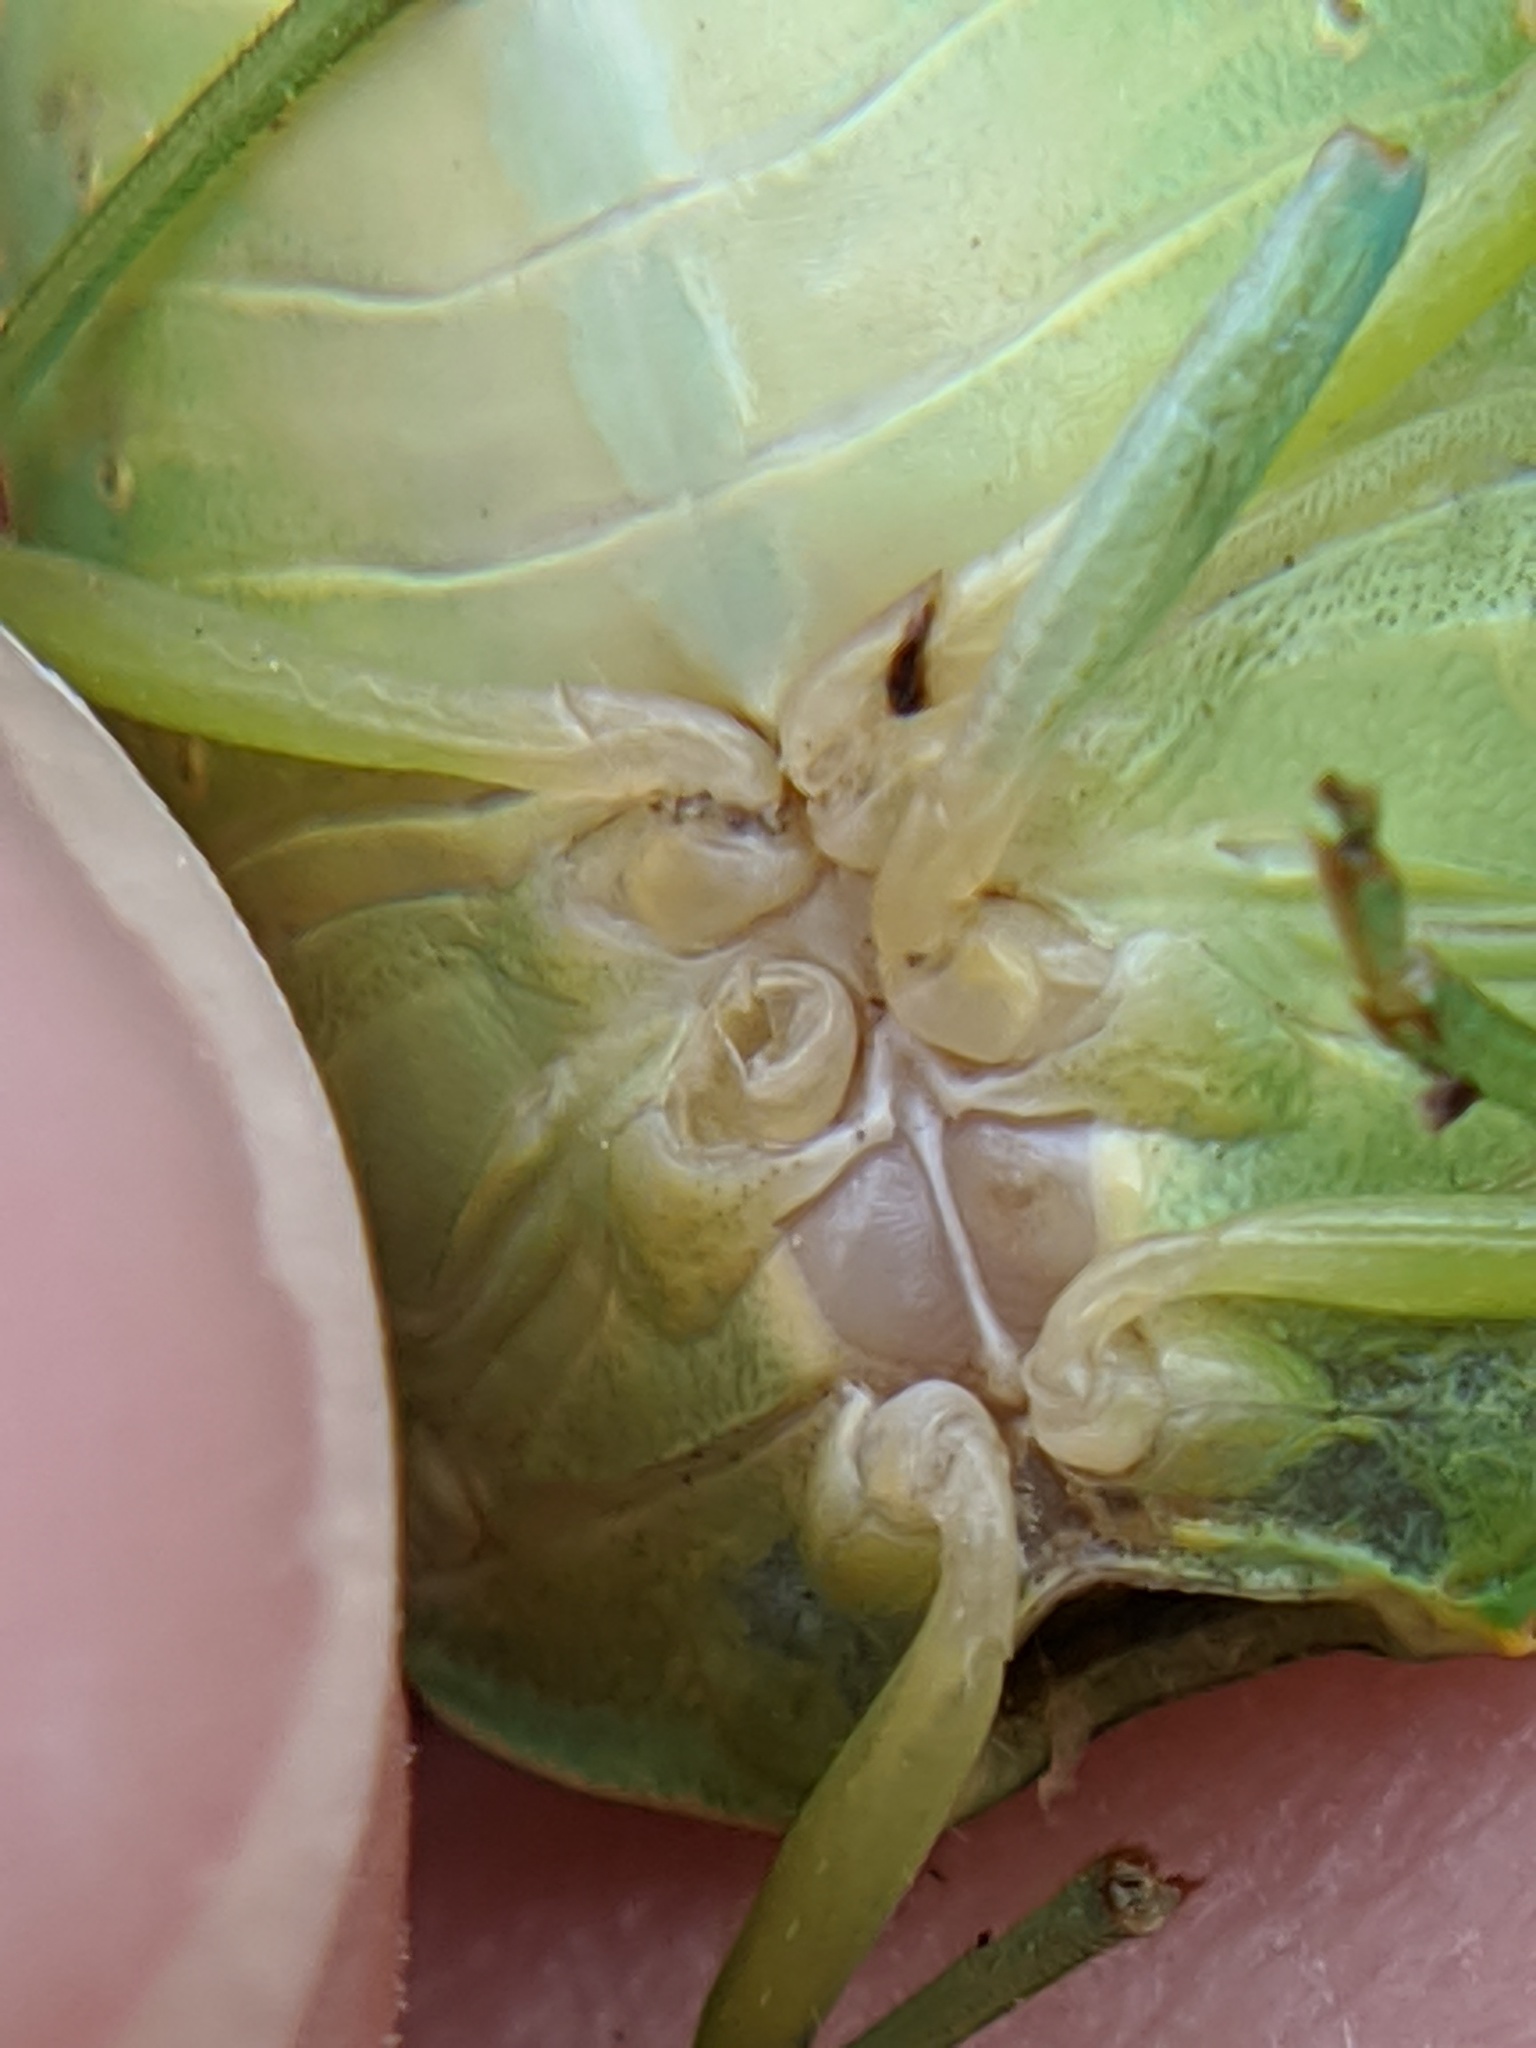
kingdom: Animalia
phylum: Arthropoda
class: Insecta
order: Hemiptera
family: Pentatomidae
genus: Chinavia
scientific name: Chinavia hilaris
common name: Green stink bug
